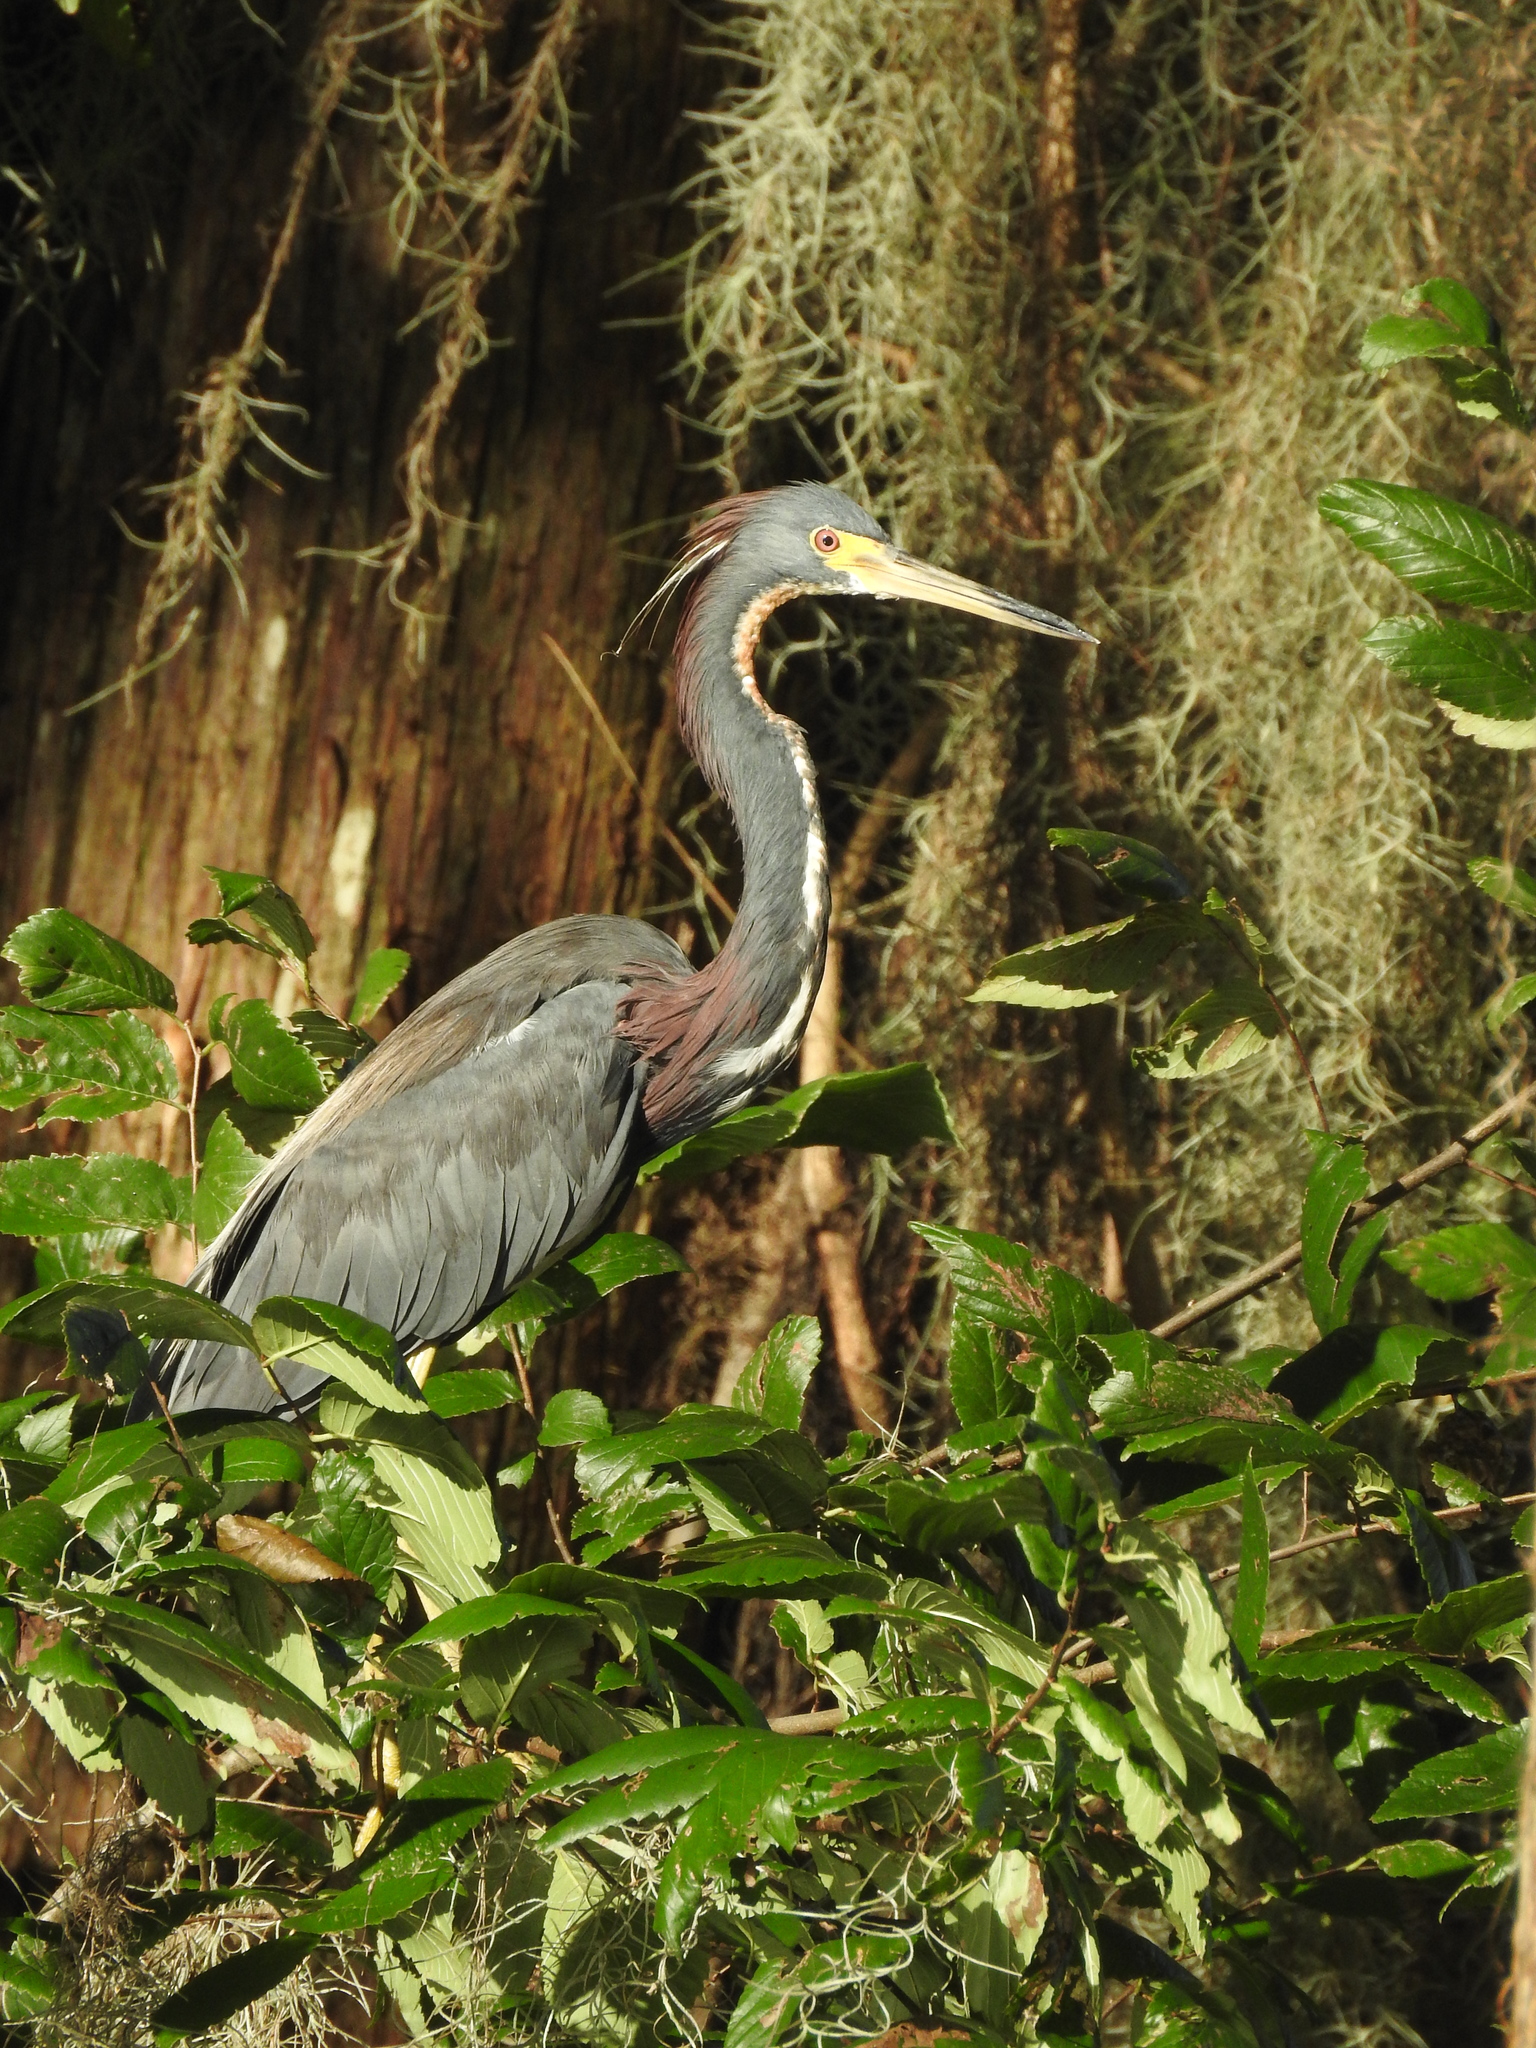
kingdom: Animalia
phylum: Chordata
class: Aves
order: Pelecaniformes
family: Ardeidae
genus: Egretta
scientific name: Egretta tricolor
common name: Tricolored heron
